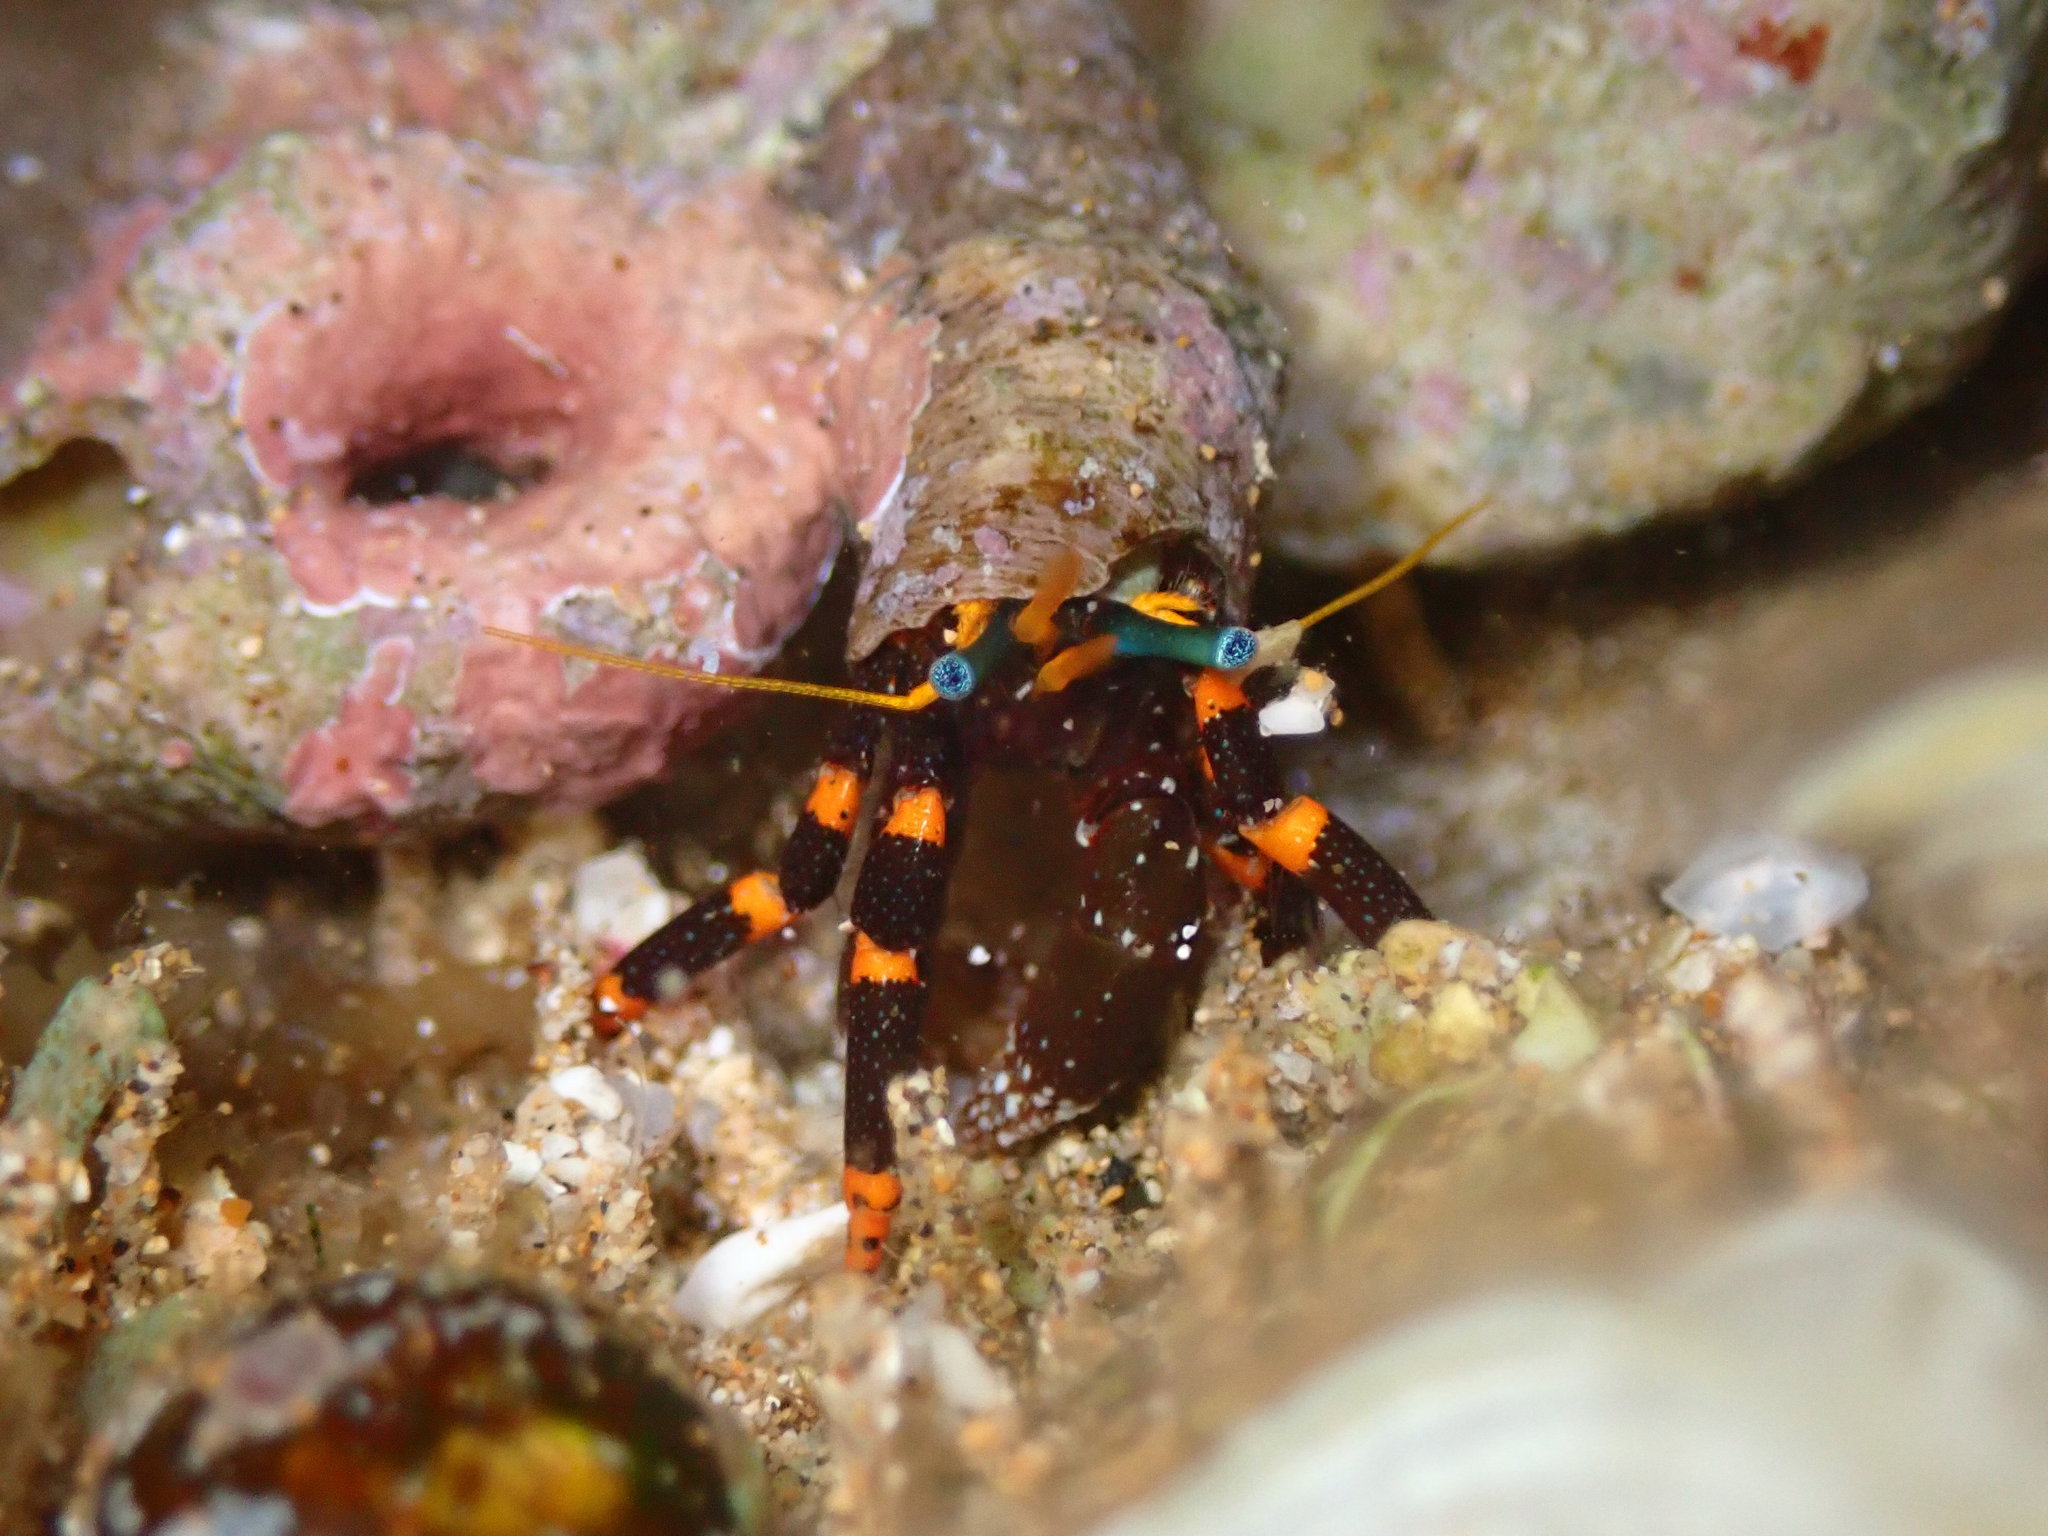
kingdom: Animalia
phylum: Arthropoda
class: Malacostraca
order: Decapoda
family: Diogenidae
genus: Calcinus
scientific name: Calcinus pictus
